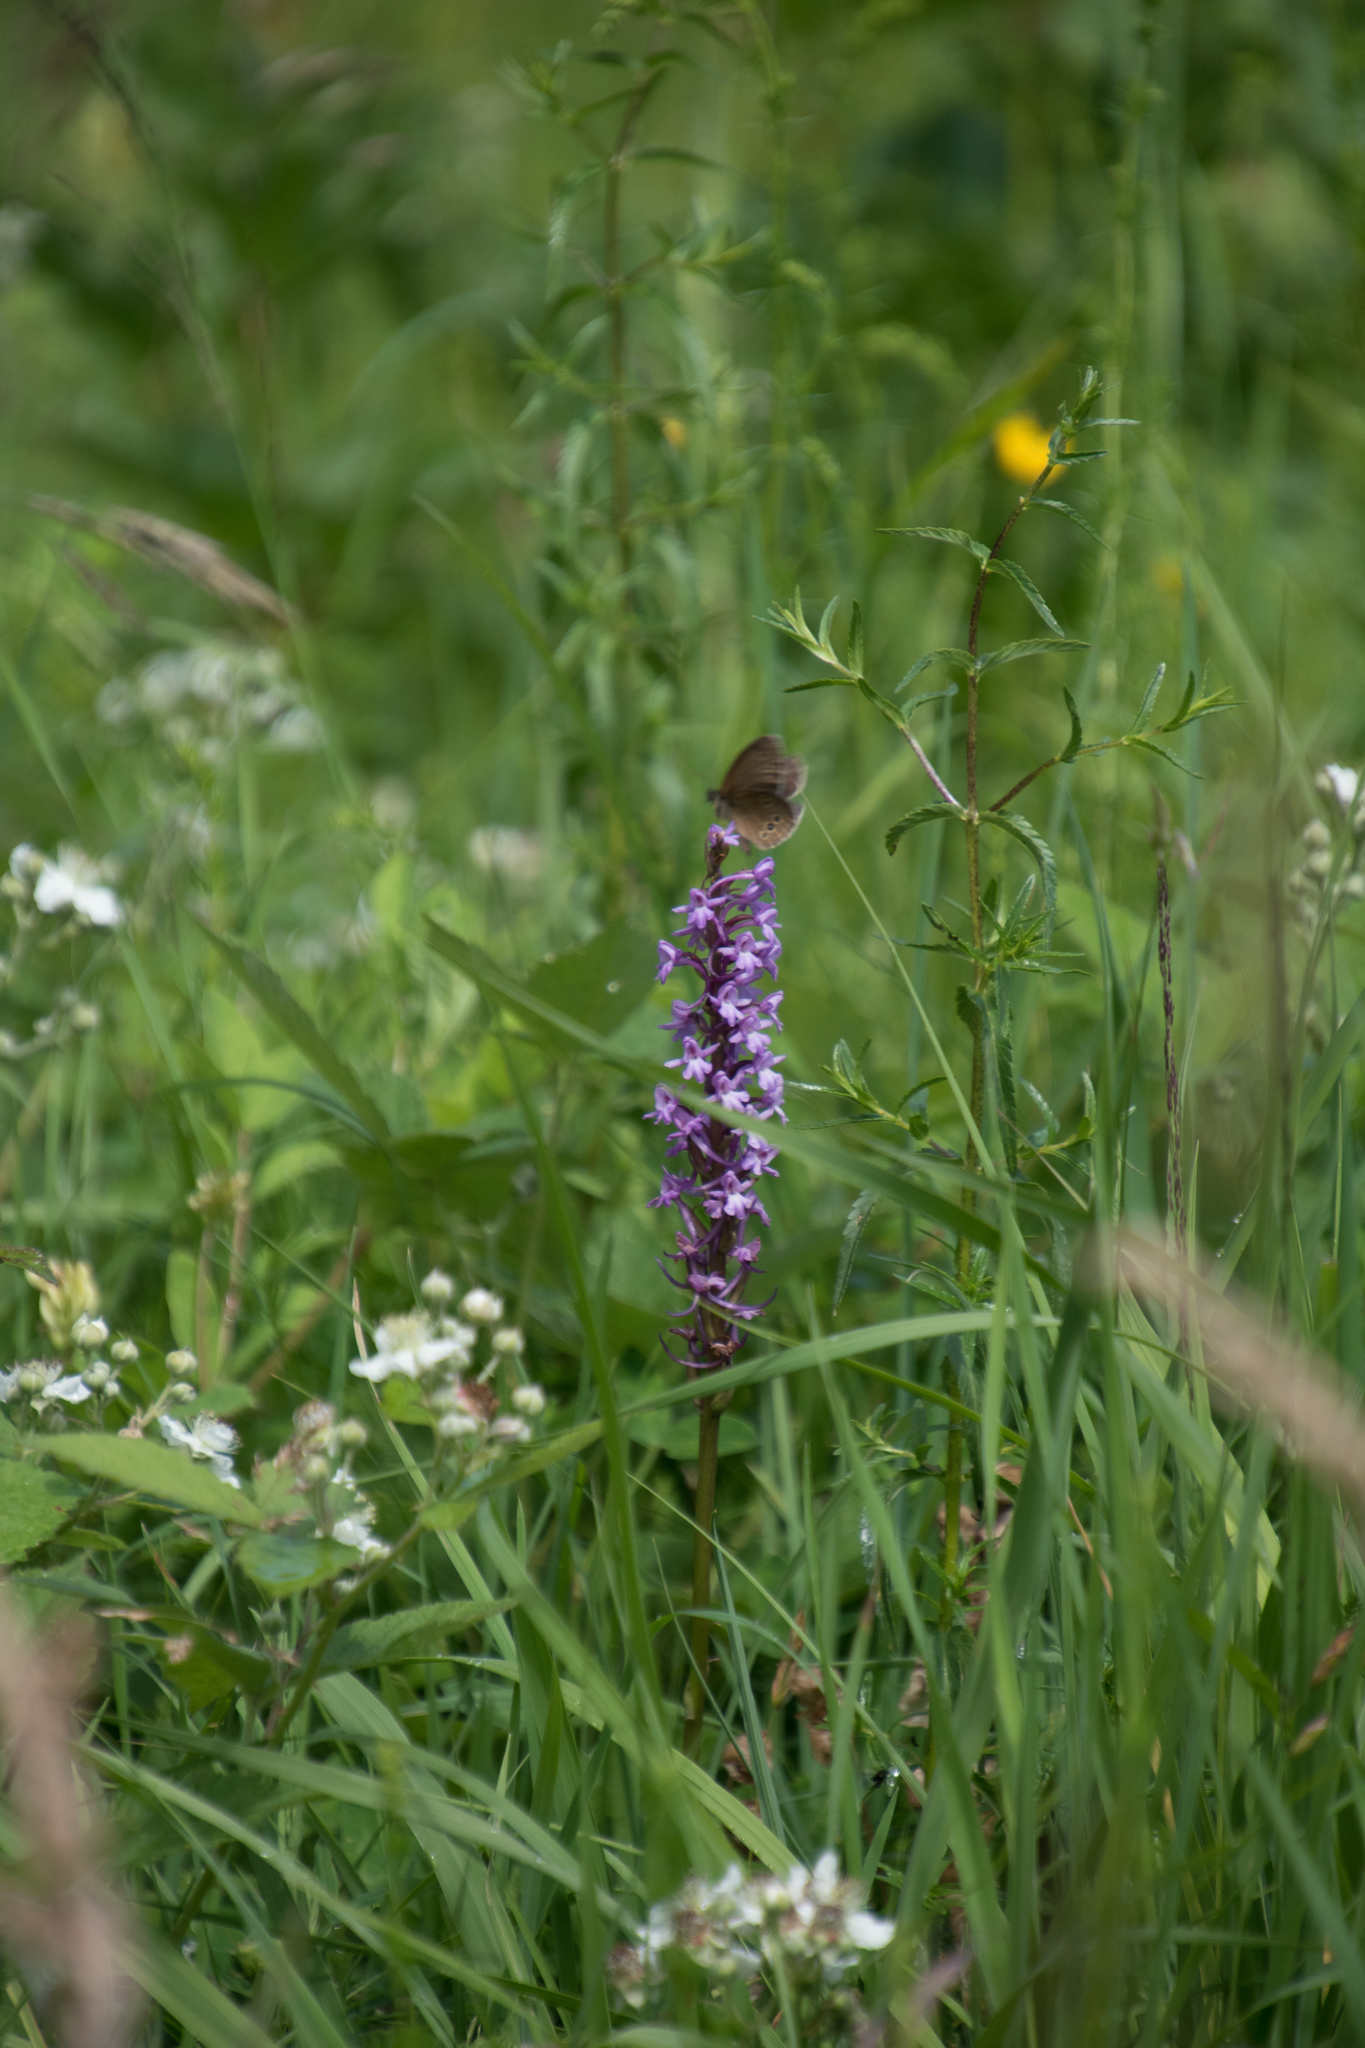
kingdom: Plantae
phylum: Tracheophyta
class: Liliopsida
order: Asparagales
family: Orchidaceae
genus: Gymnadenia
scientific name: Gymnadenia conopsea
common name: Fragrant orchid
